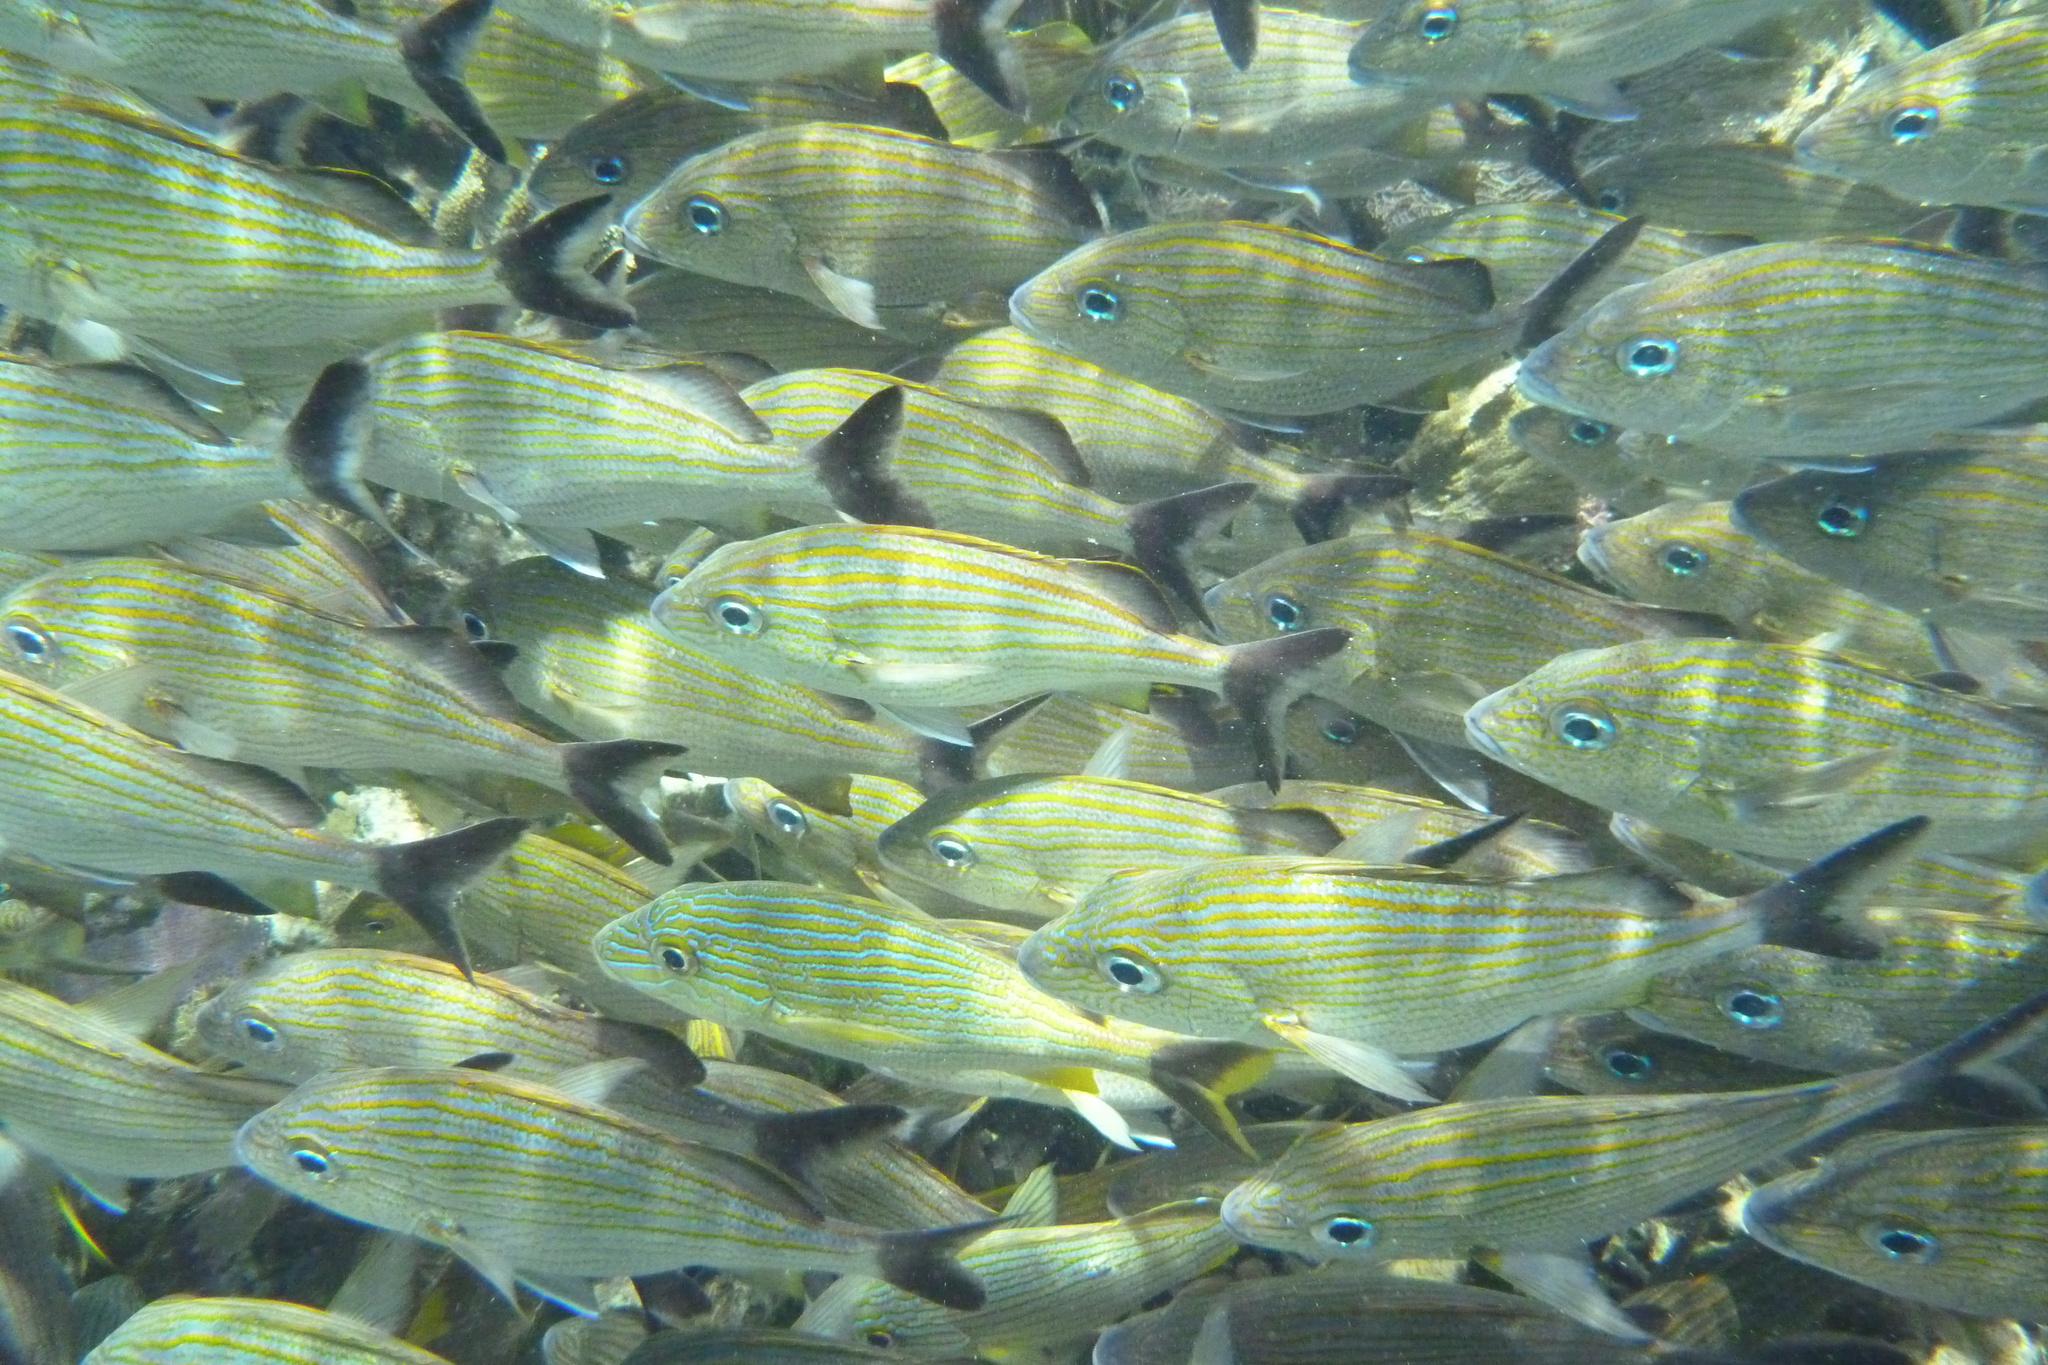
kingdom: Animalia
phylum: Chordata
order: Perciformes
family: Haemulidae
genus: Haemulon
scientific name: Haemulon carbonarium
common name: Caesar grunt
